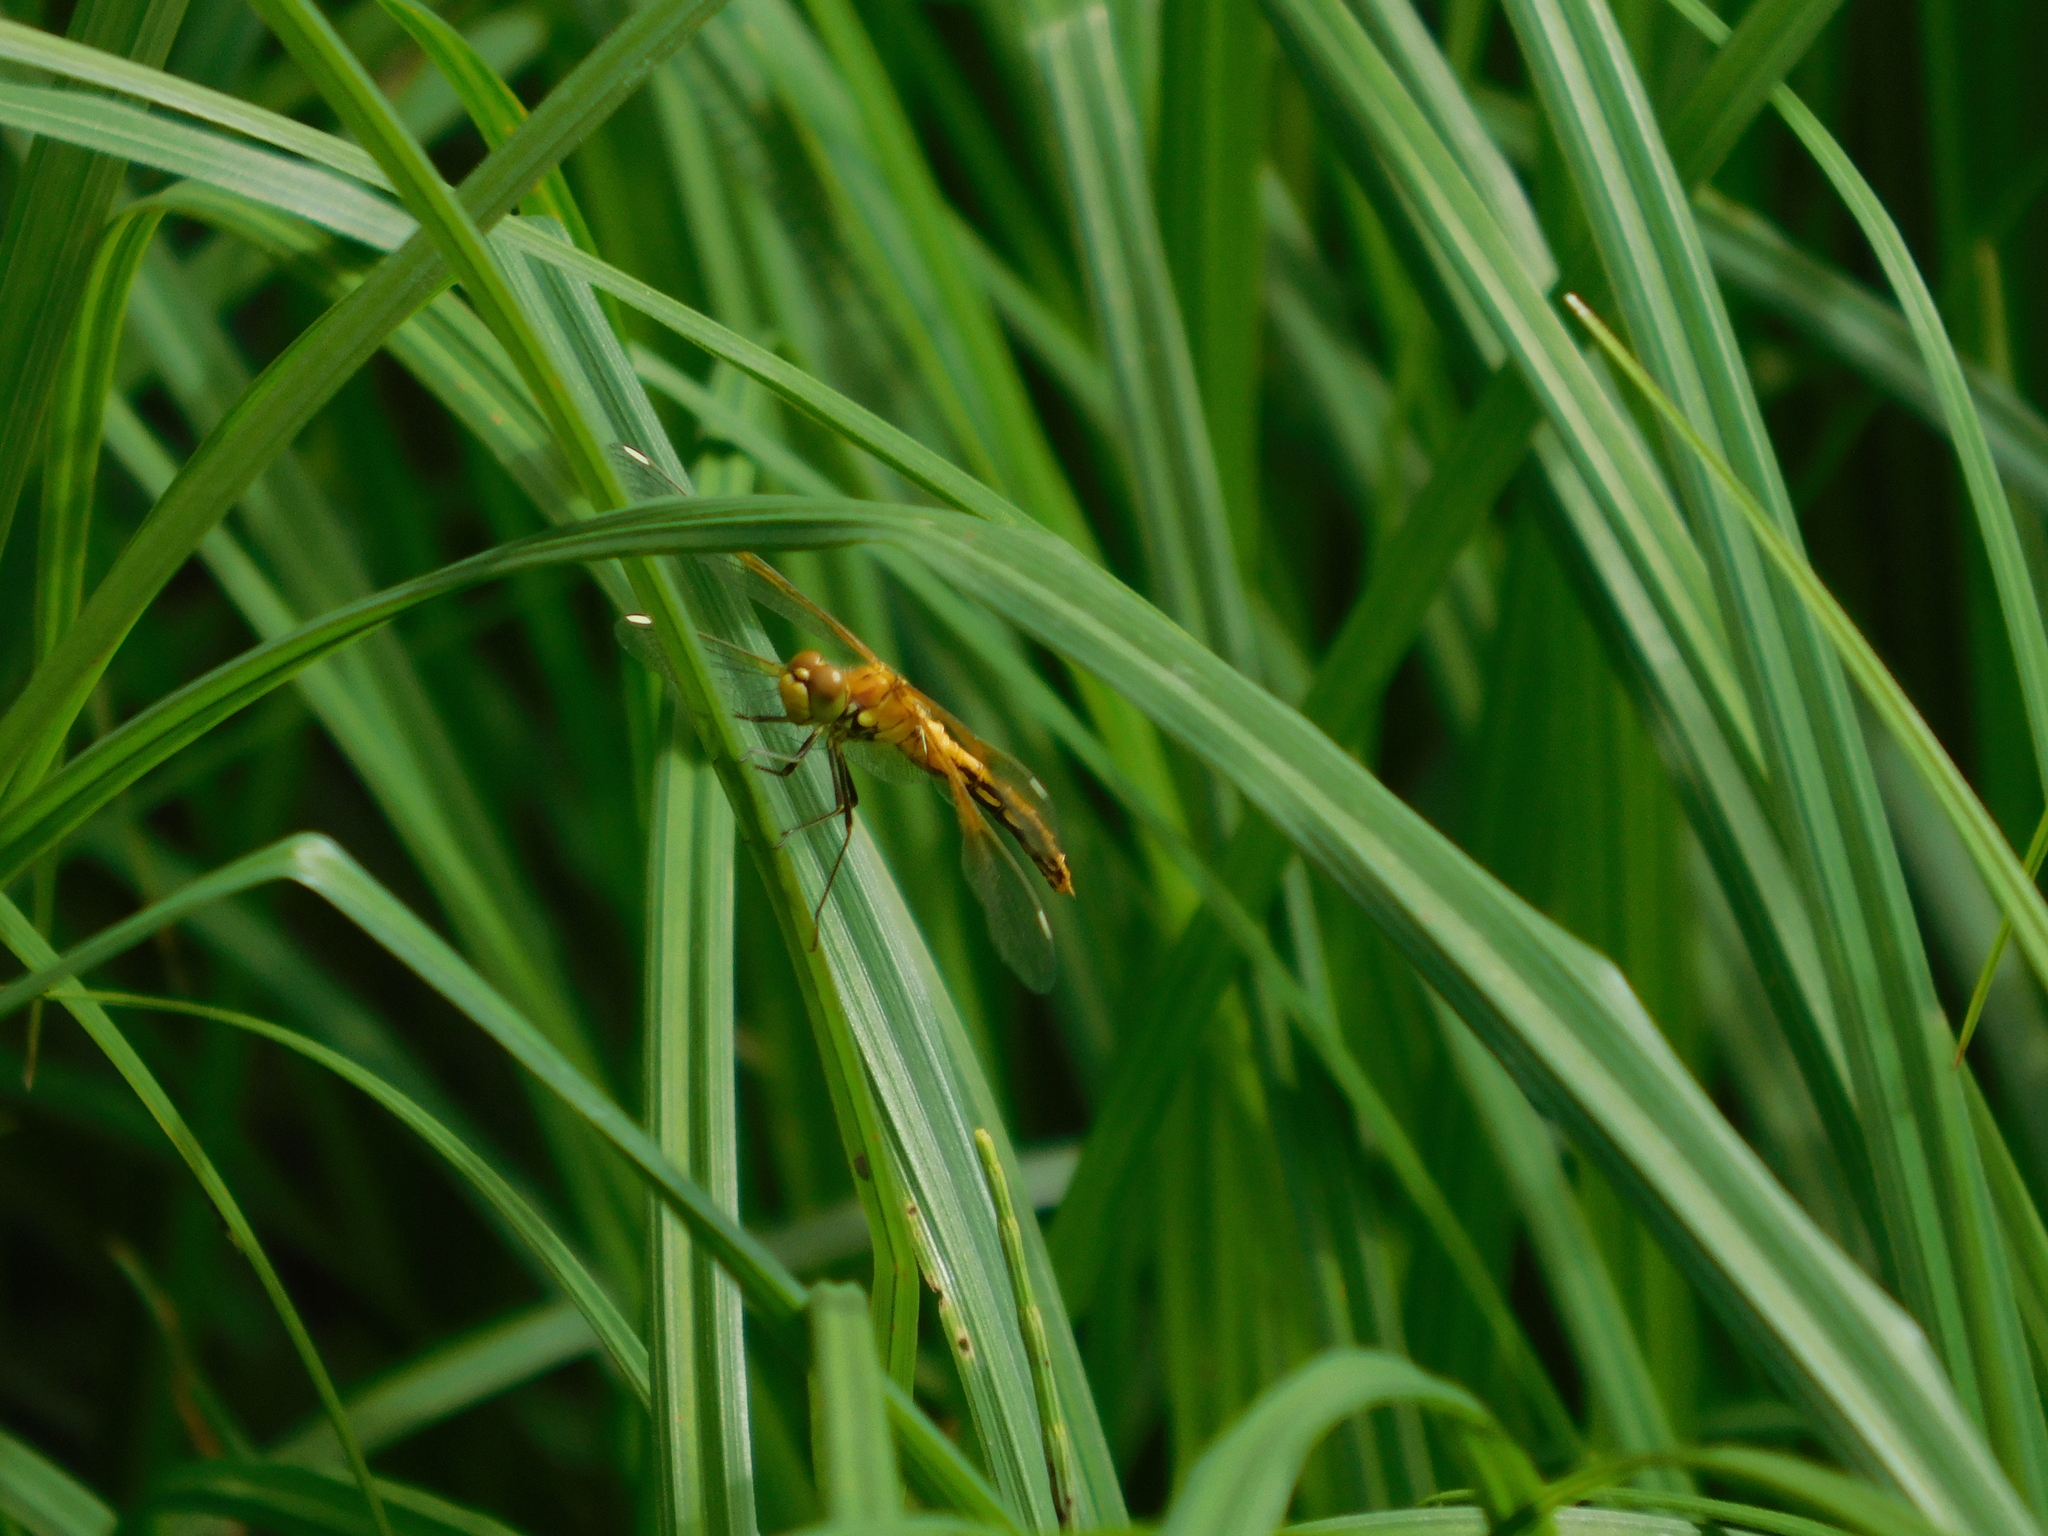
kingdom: Animalia
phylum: Arthropoda
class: Insecta
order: Odonata
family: Libellulidae
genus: Sympetrum
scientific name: Sympetrum flaveolum
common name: Yellow-winged darter
